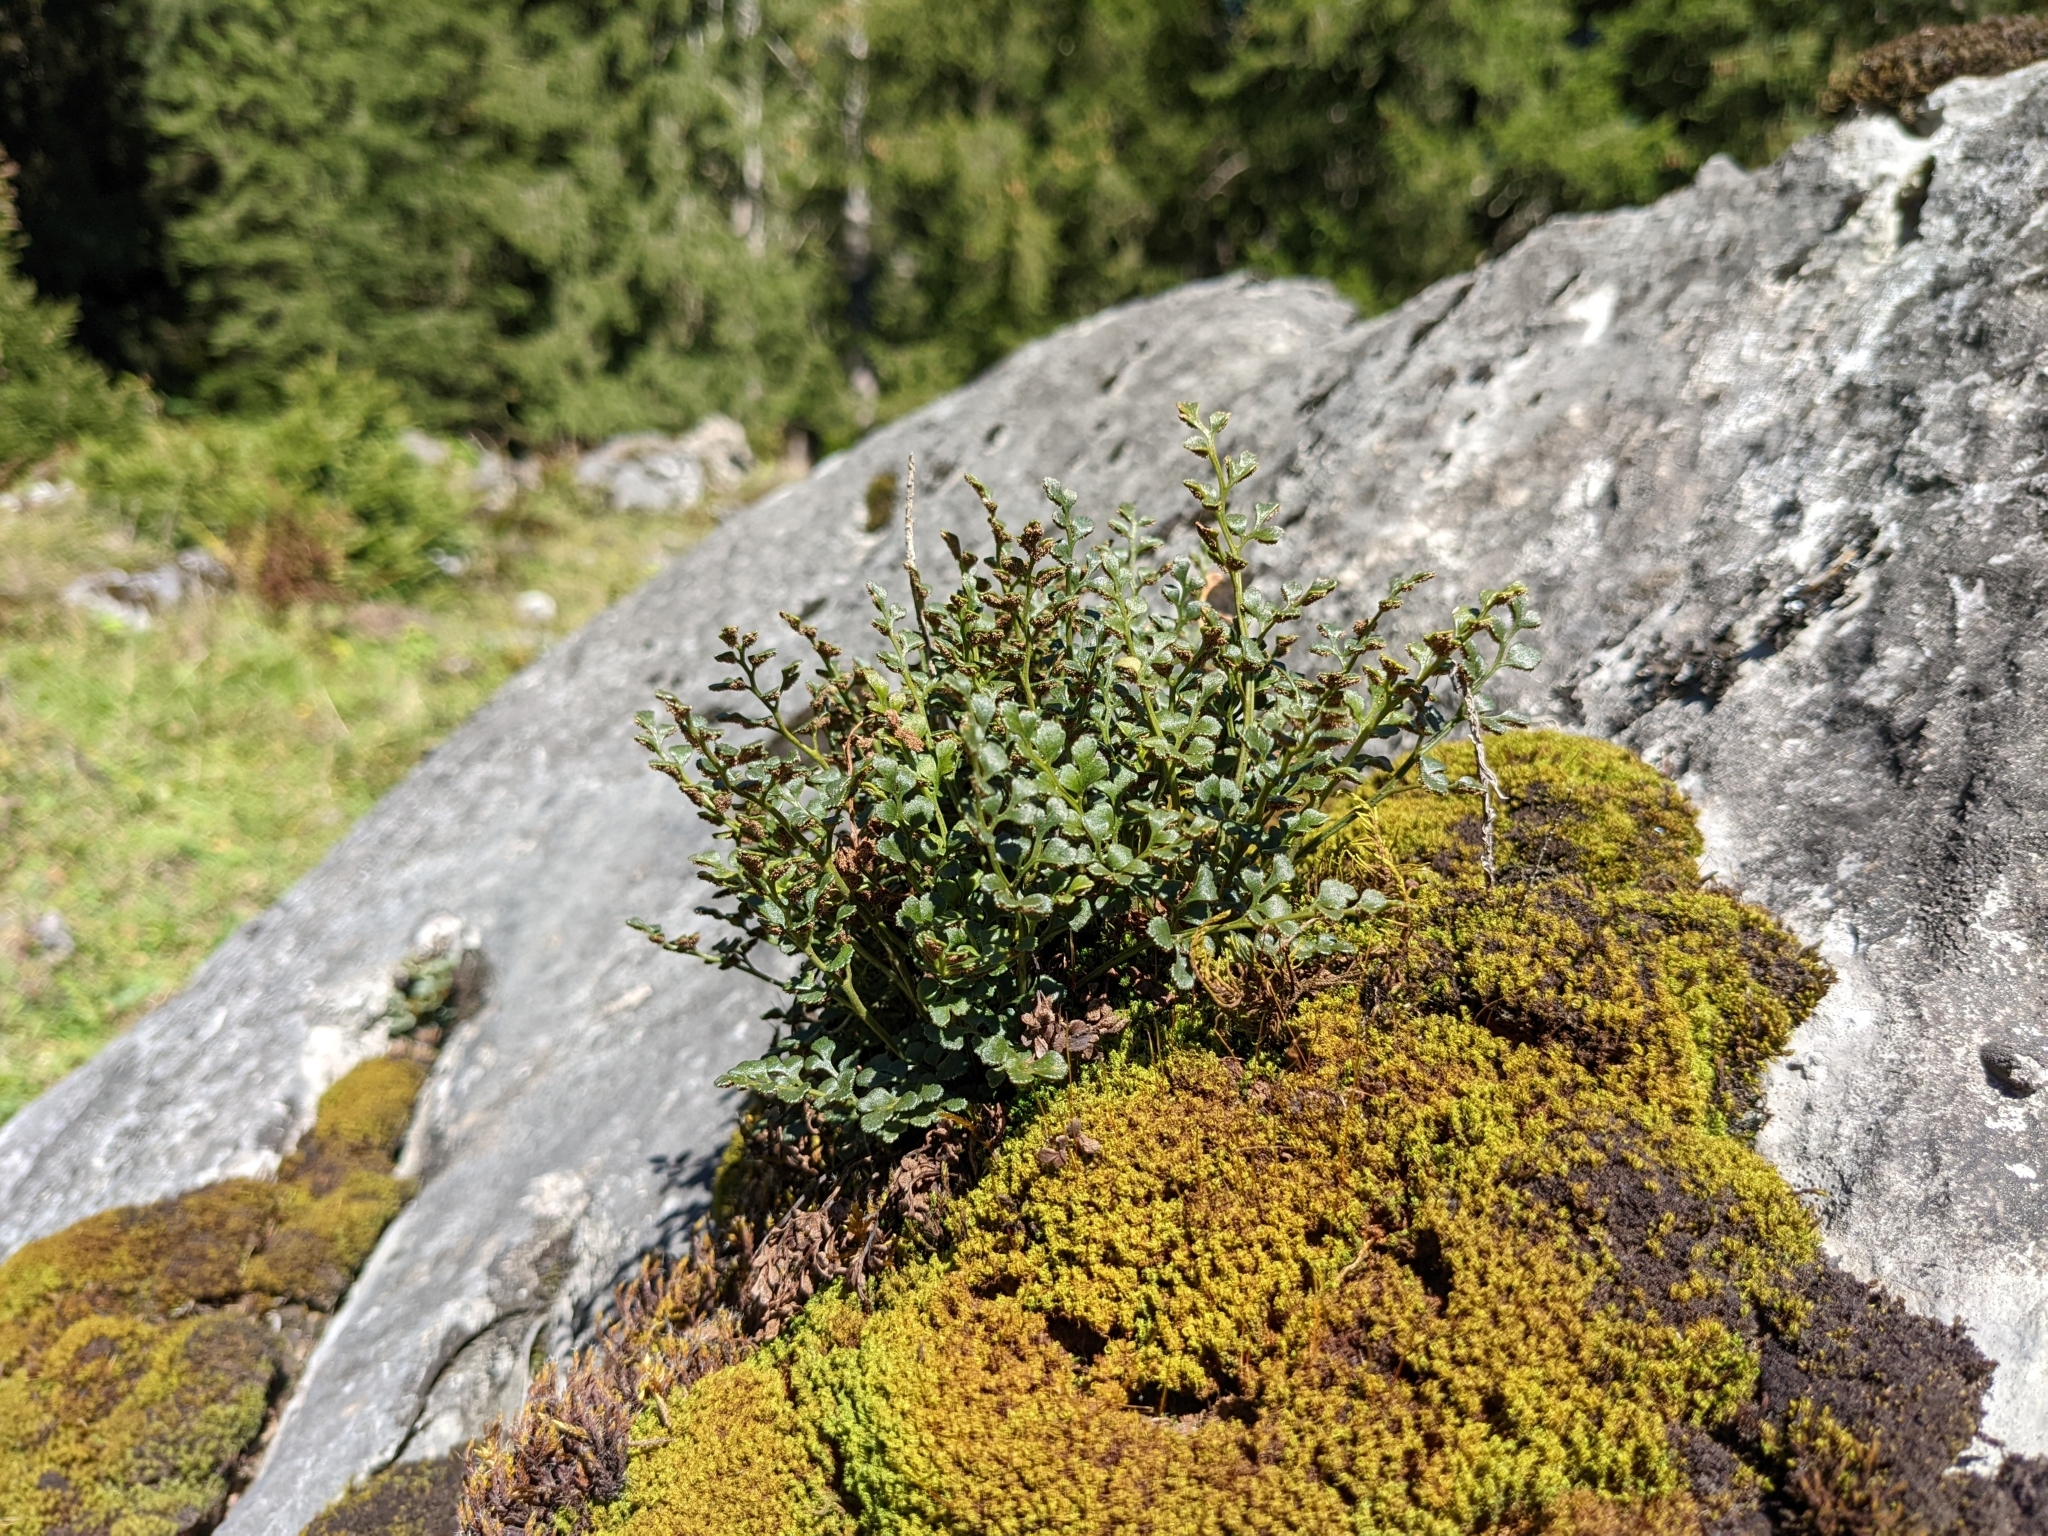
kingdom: Plantae
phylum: Tracheophyta
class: Polypodiopsida
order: Polypodiales
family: Aspleniaceae
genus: Asplenium
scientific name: Asplenium ruta-muraria
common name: Wall-rue
